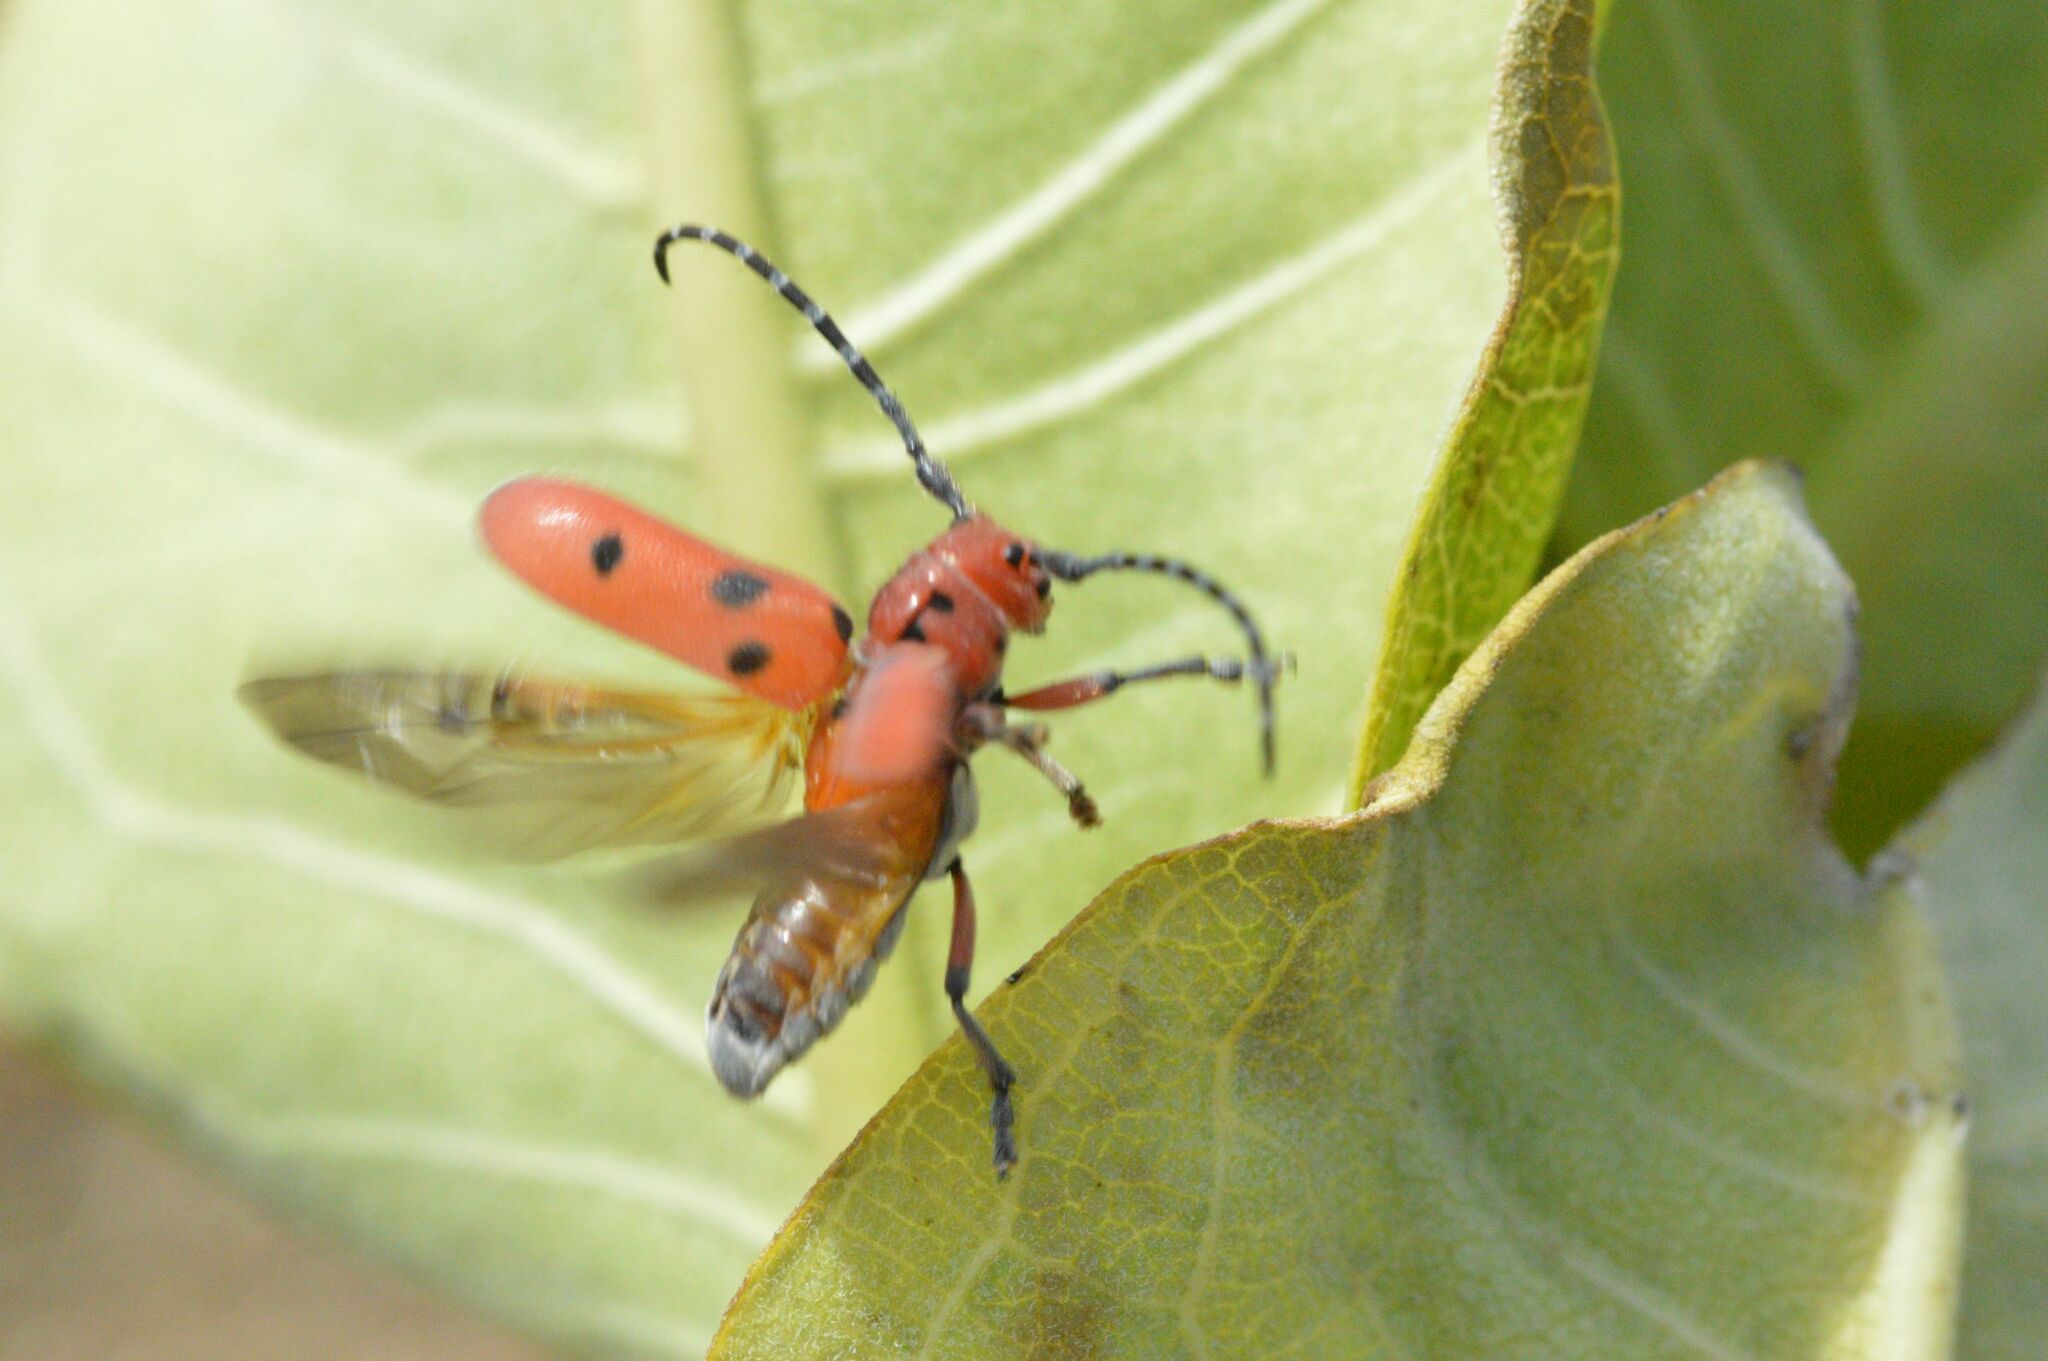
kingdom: Animalia
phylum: Arthropoda
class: Insecta
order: Coleoptera
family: Cerambycidae
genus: Tetraopes
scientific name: Tetraopes femoratus
